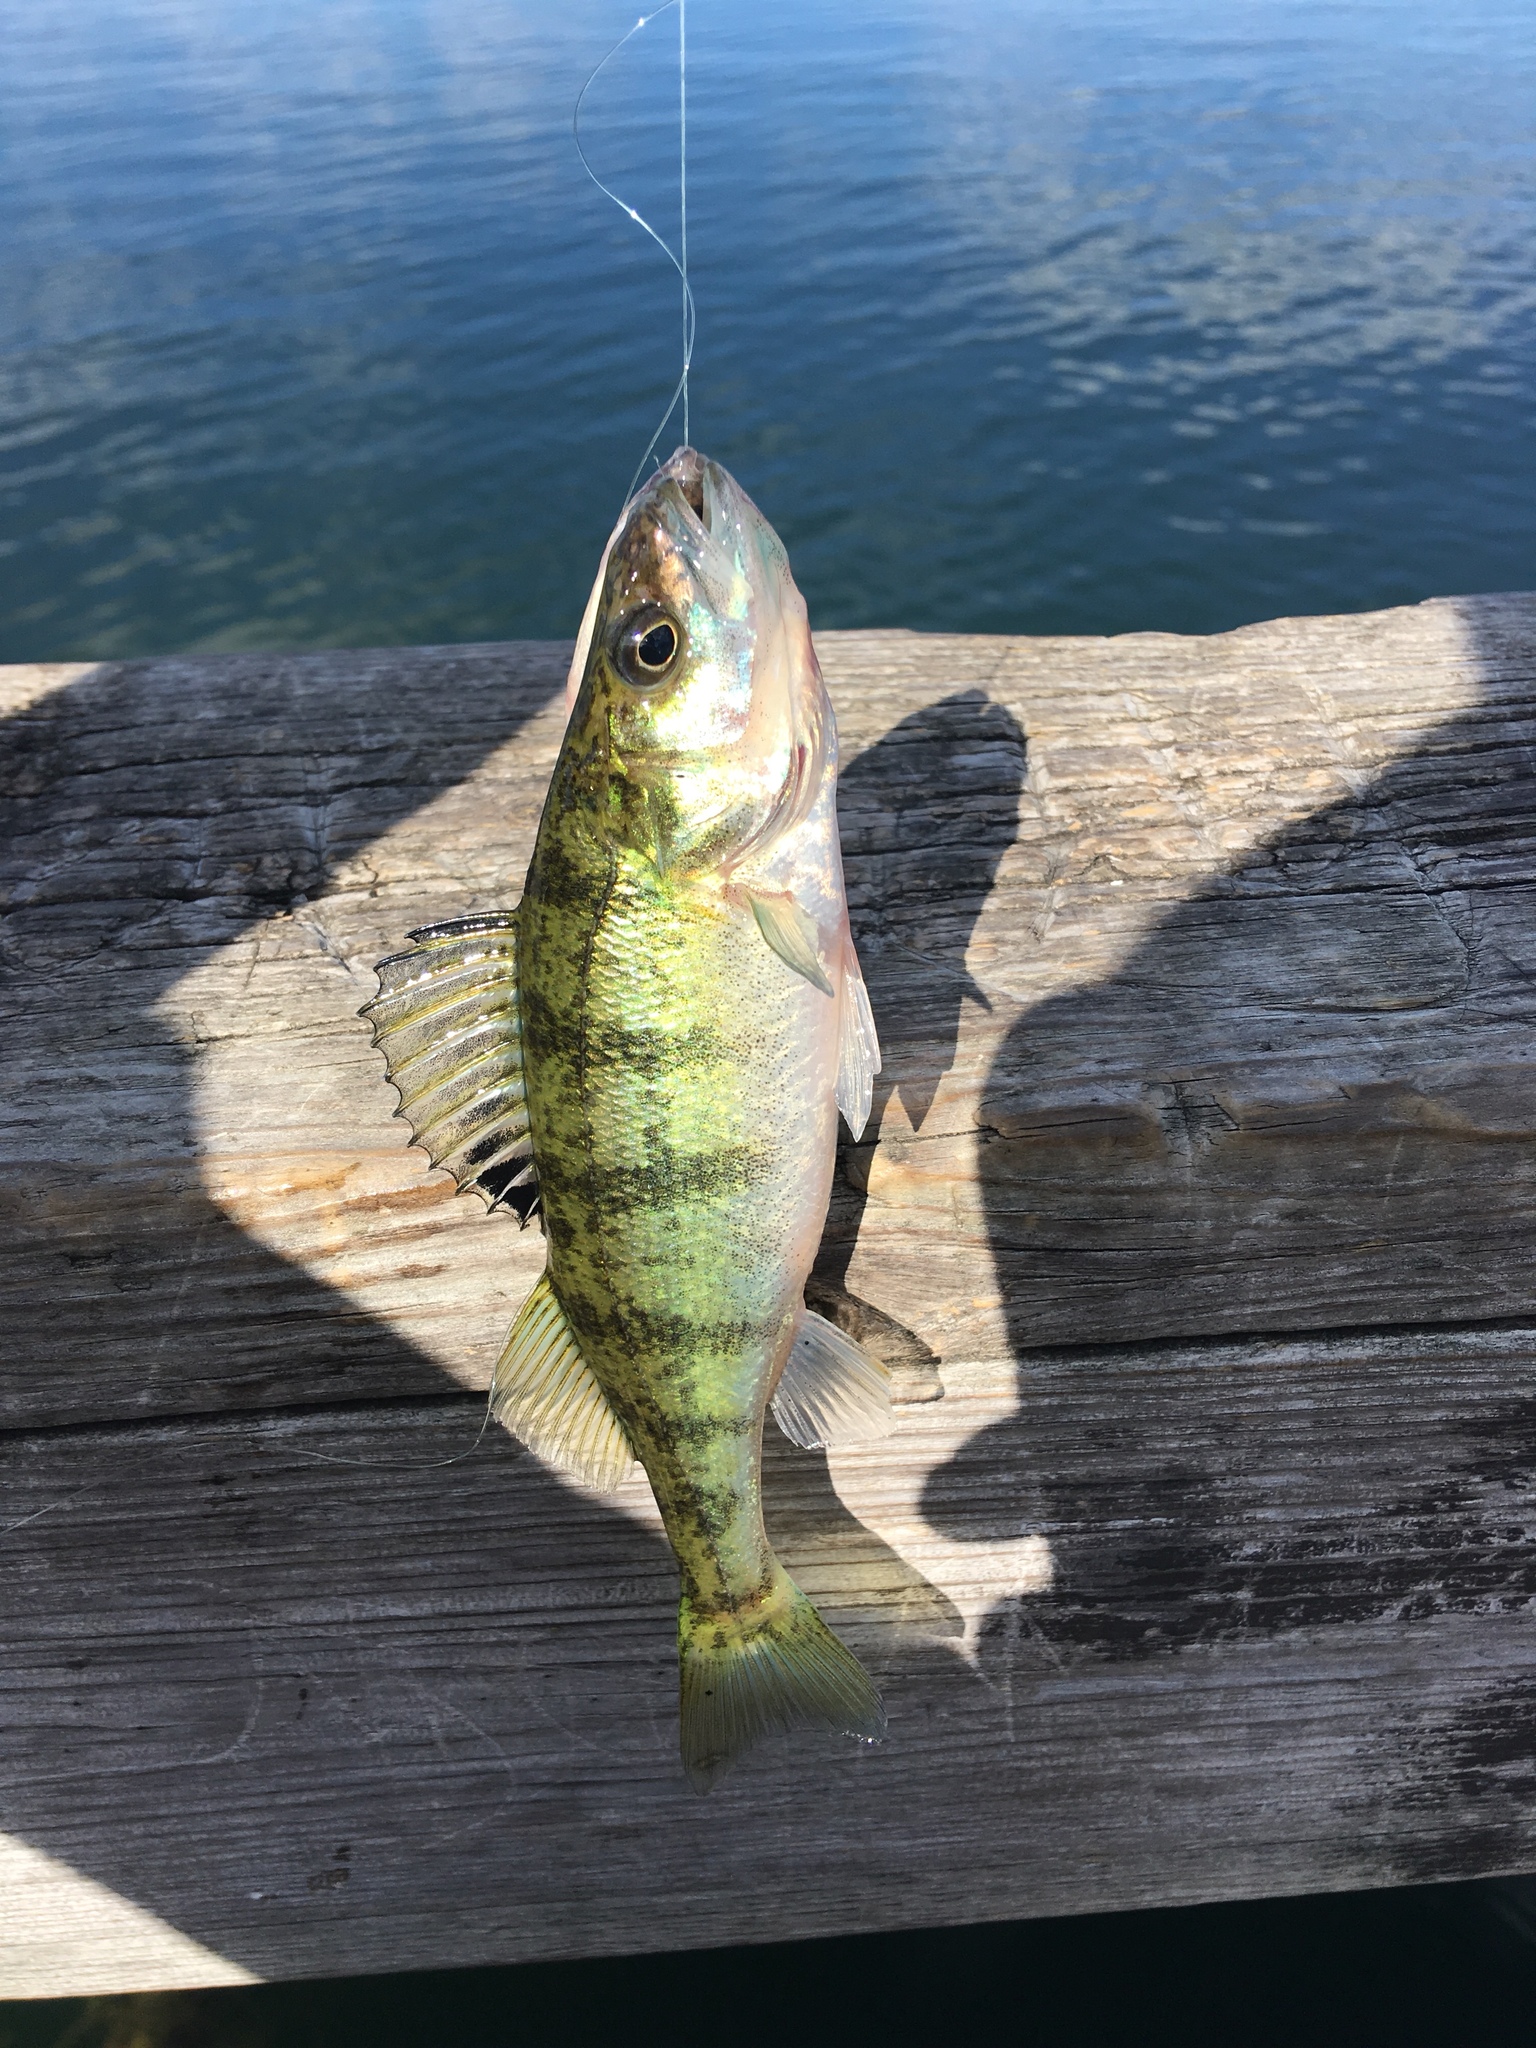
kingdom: Animalia
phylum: Chordata
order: Perciformes
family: Percidae
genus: Perca
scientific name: Perca flavescens
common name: Yellow perch
